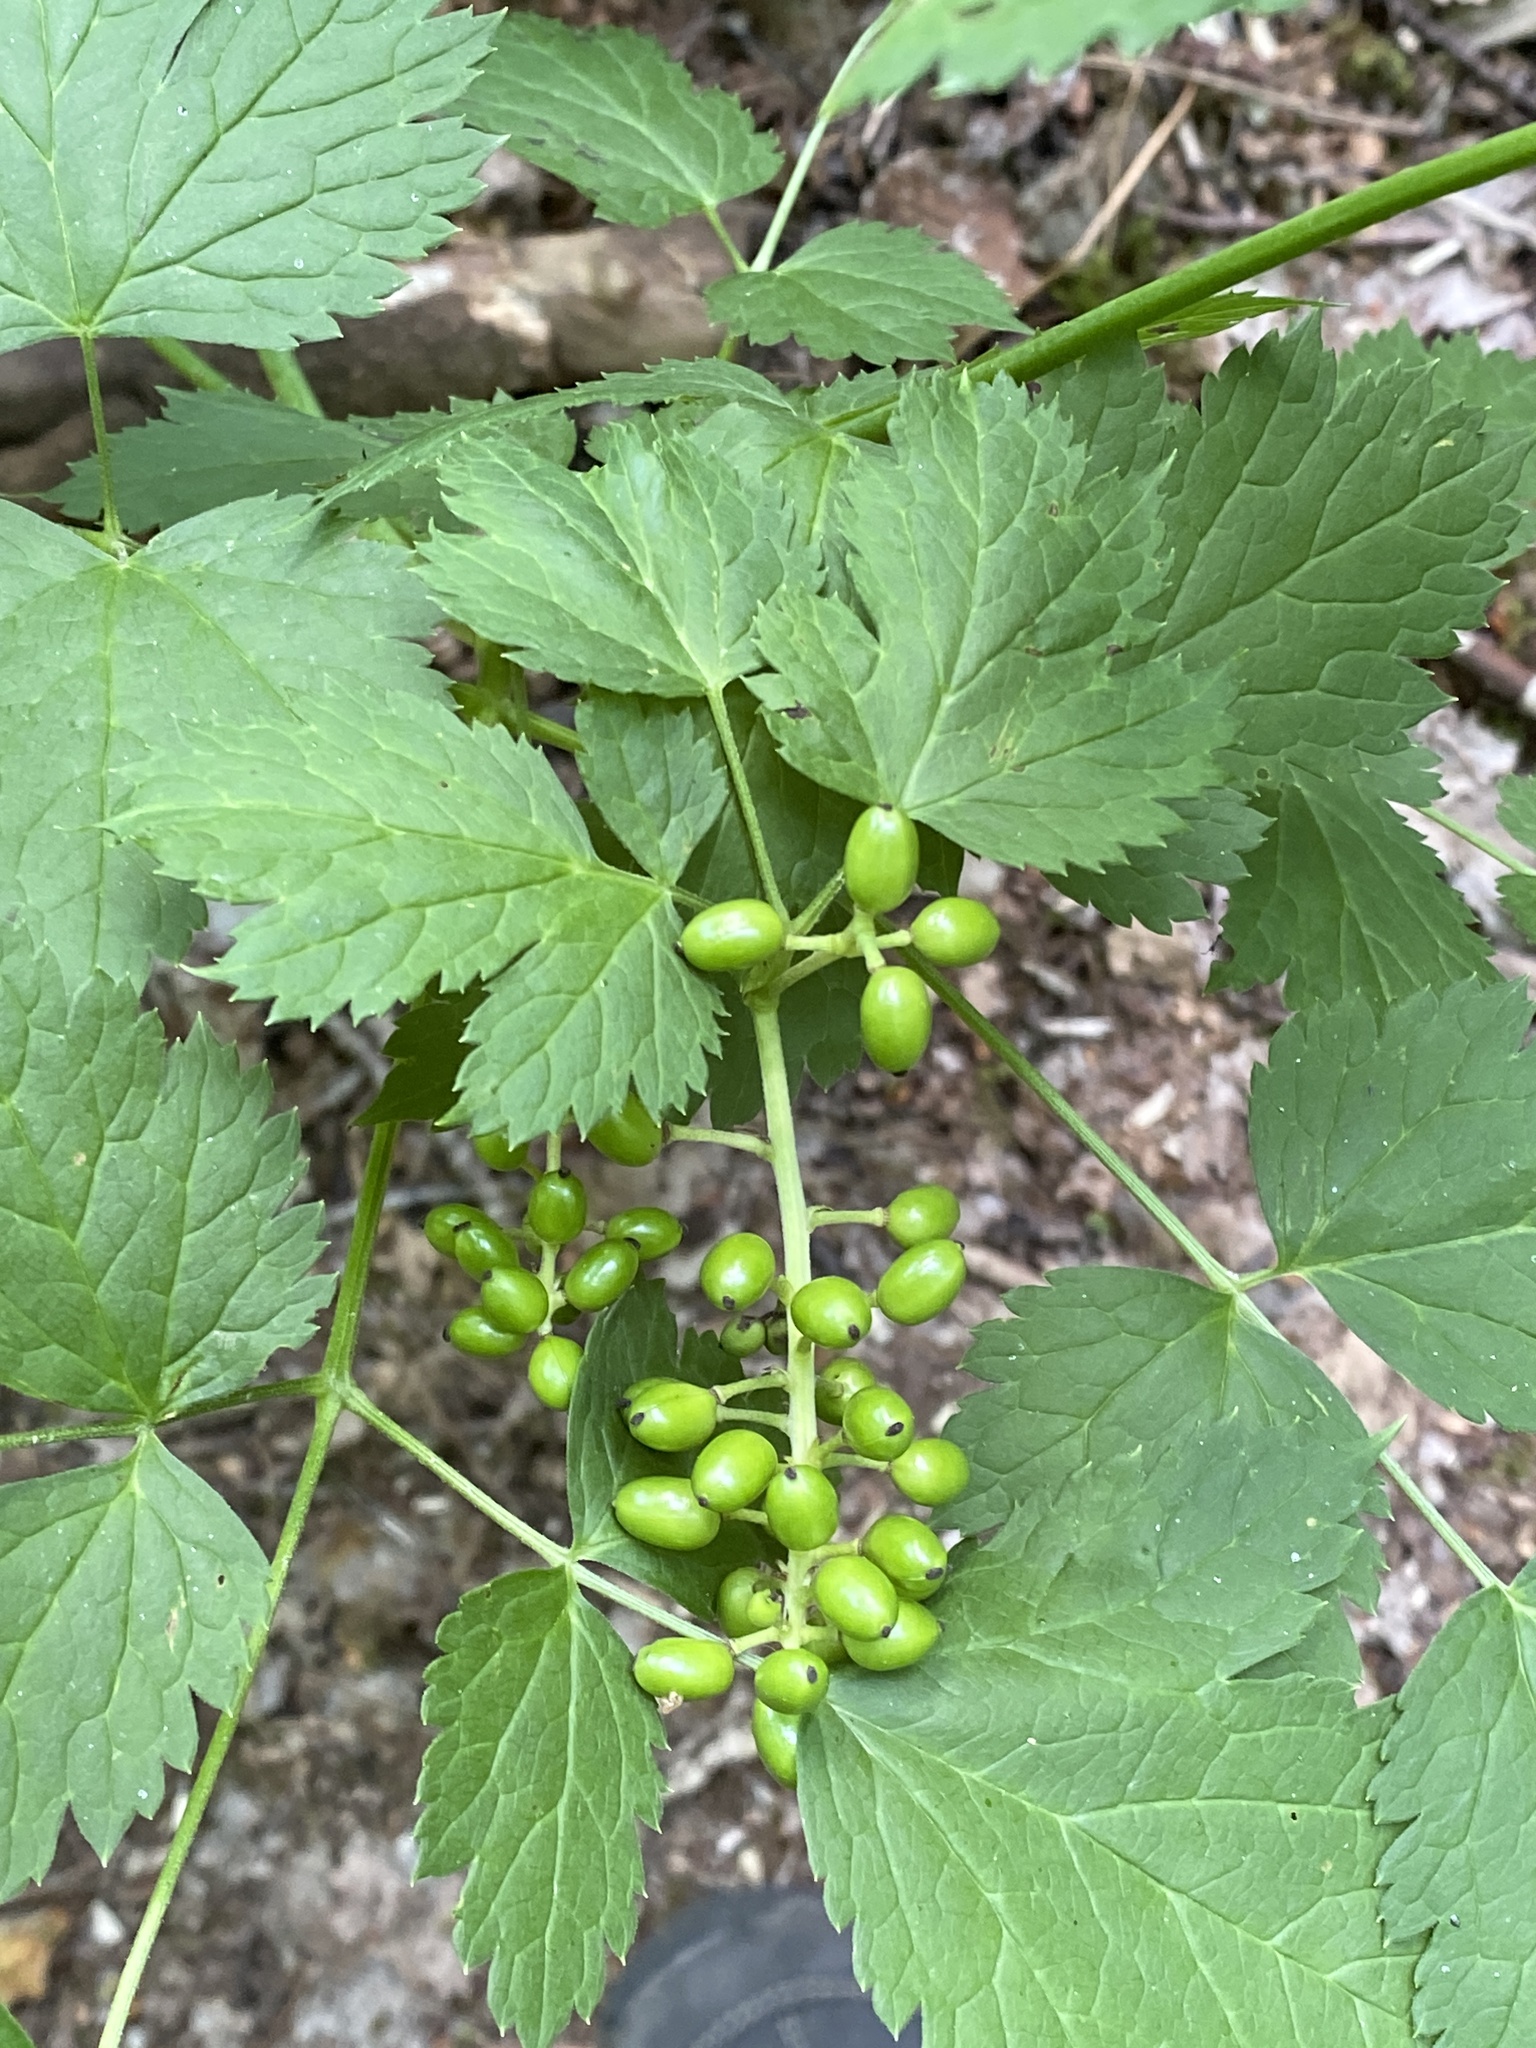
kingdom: Plantae
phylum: Tracheophyta
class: Magnoliopsida
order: Ranunculales
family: Ranunculaceae
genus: Actaea
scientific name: Actaea spicata
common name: Baneberry
